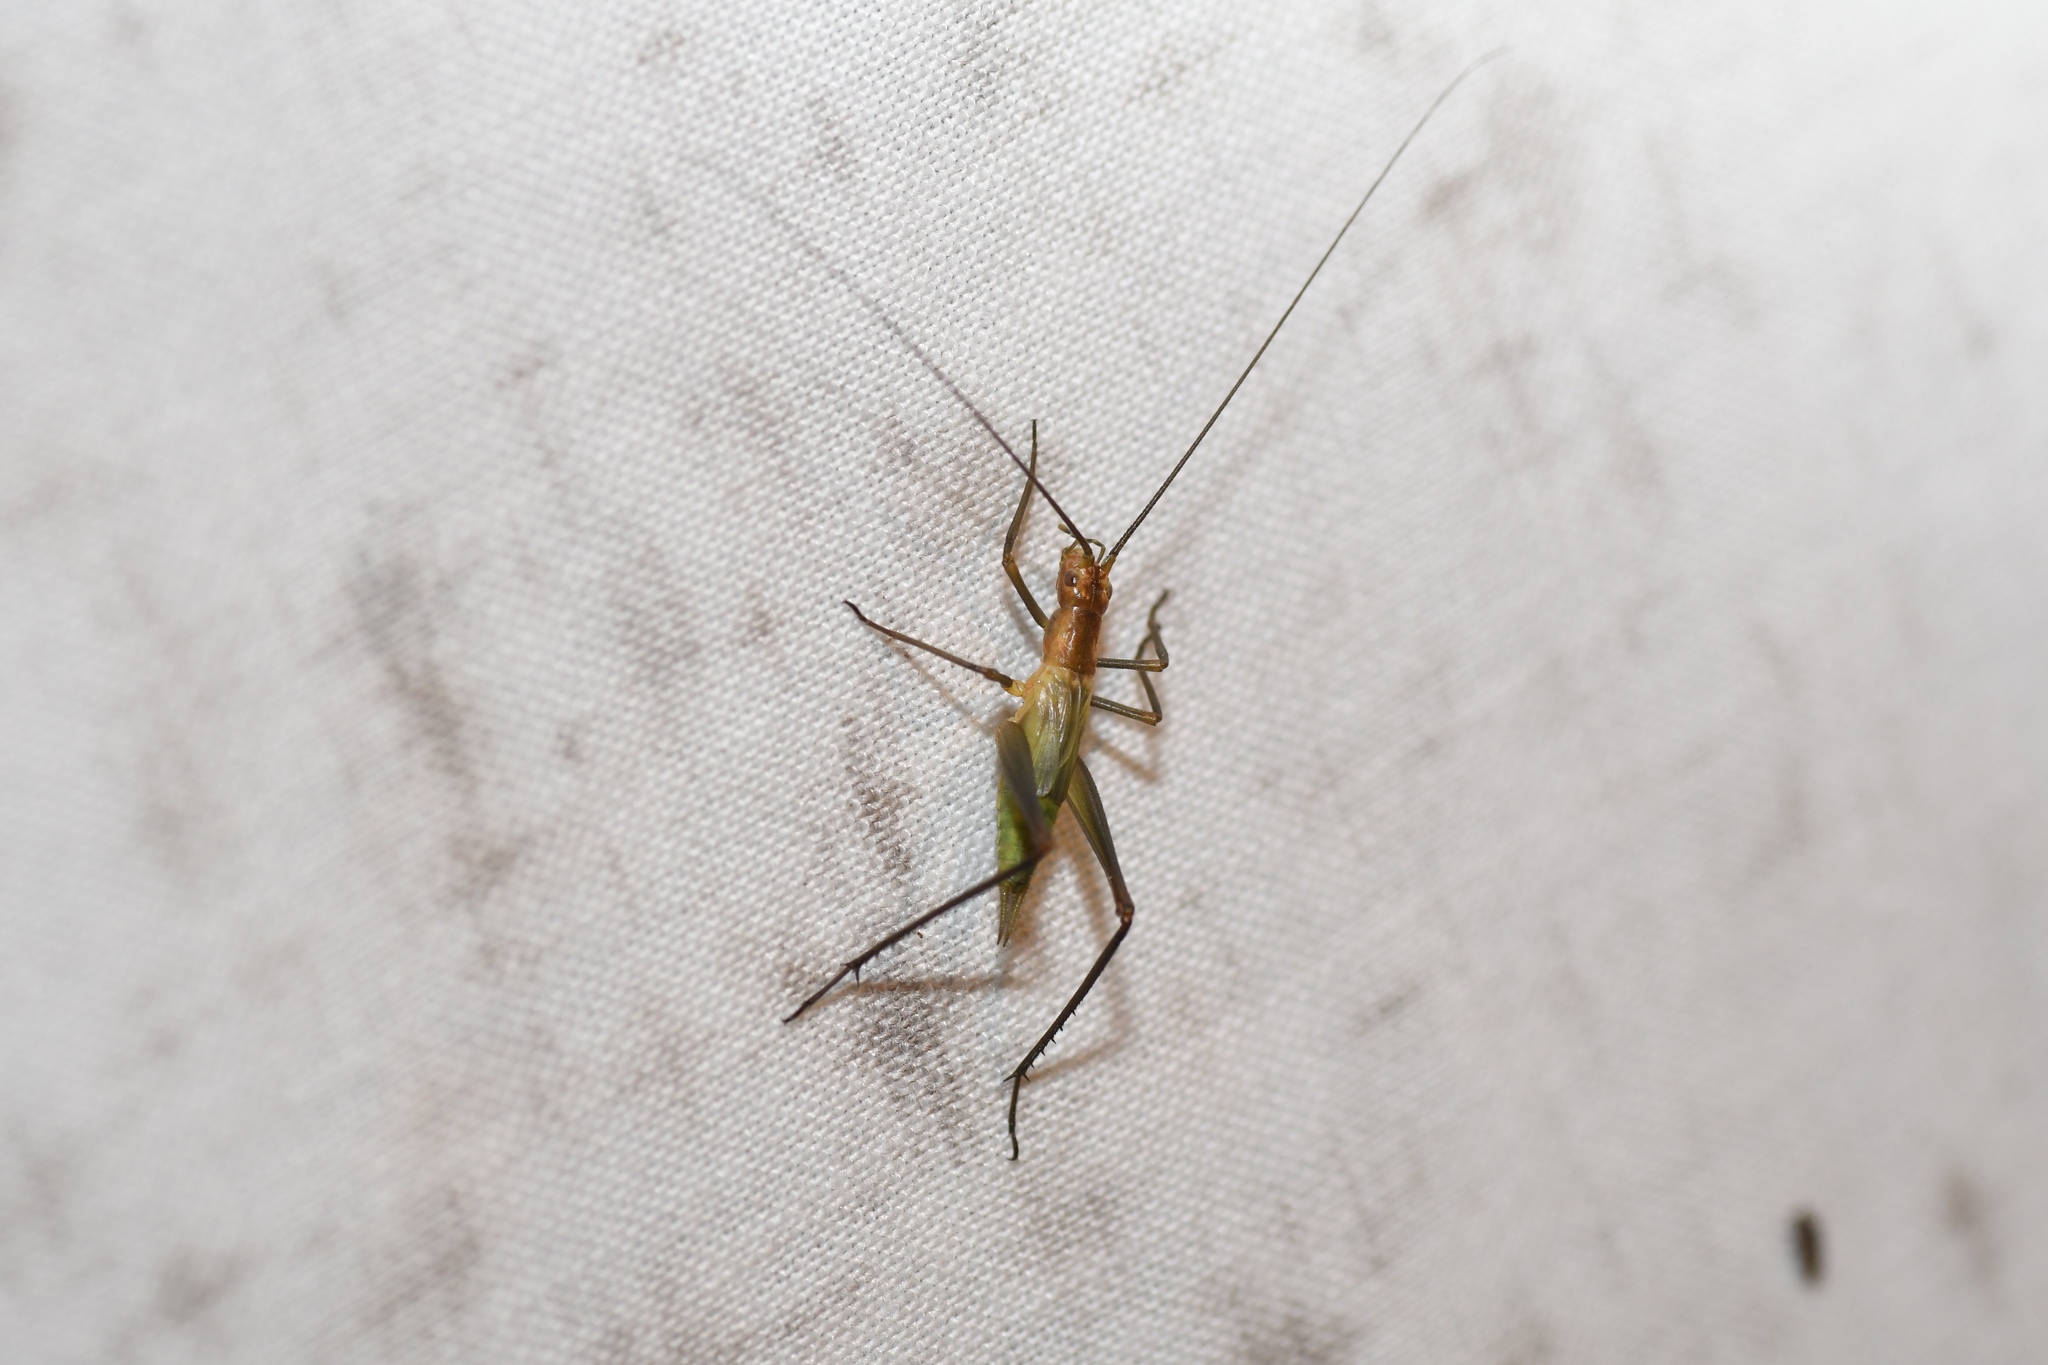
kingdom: Animalia
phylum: Arthropoda
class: Insecta
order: Orthoptera
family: Gryllidae
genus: Oecanthus
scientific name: Oecanthus pini
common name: Pine tree cricket
